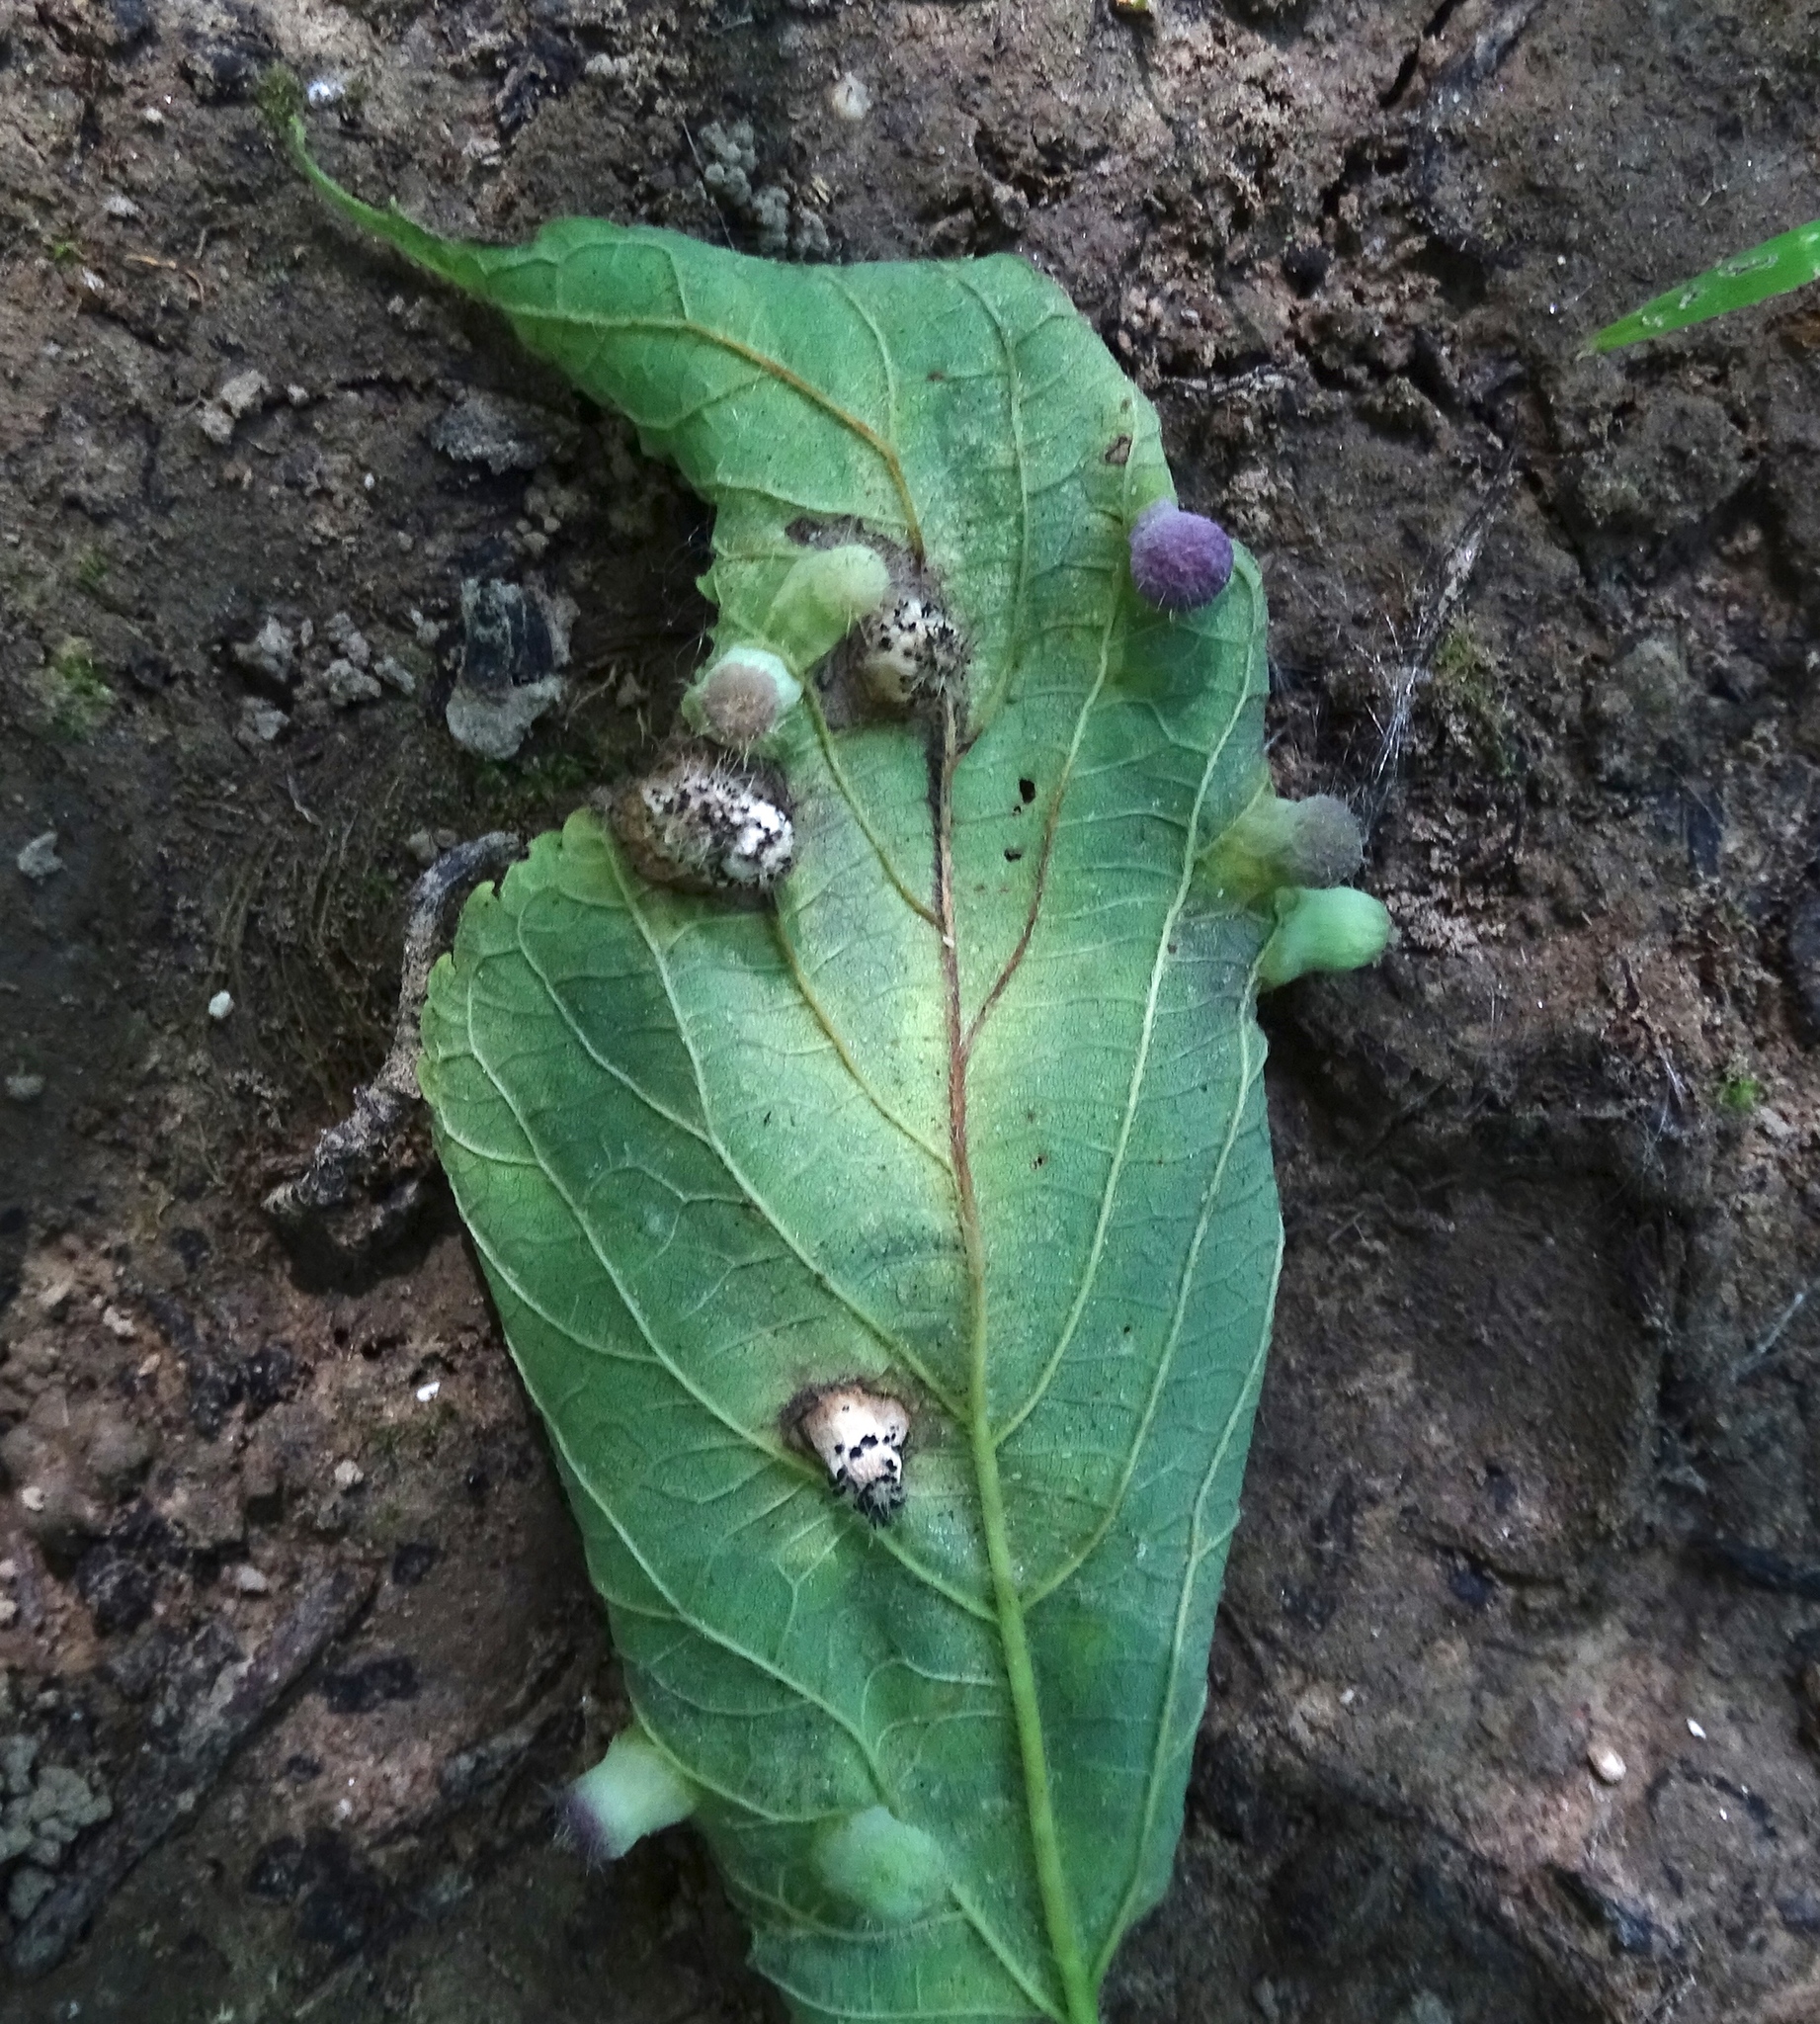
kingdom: Animalia
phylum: Arthropoda
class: Insecta
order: Hemiptera
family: Aphalaridae
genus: Pachypsylla
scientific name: Pachypsylla celtidismamma
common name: Hackberry nipplegall psyllid
